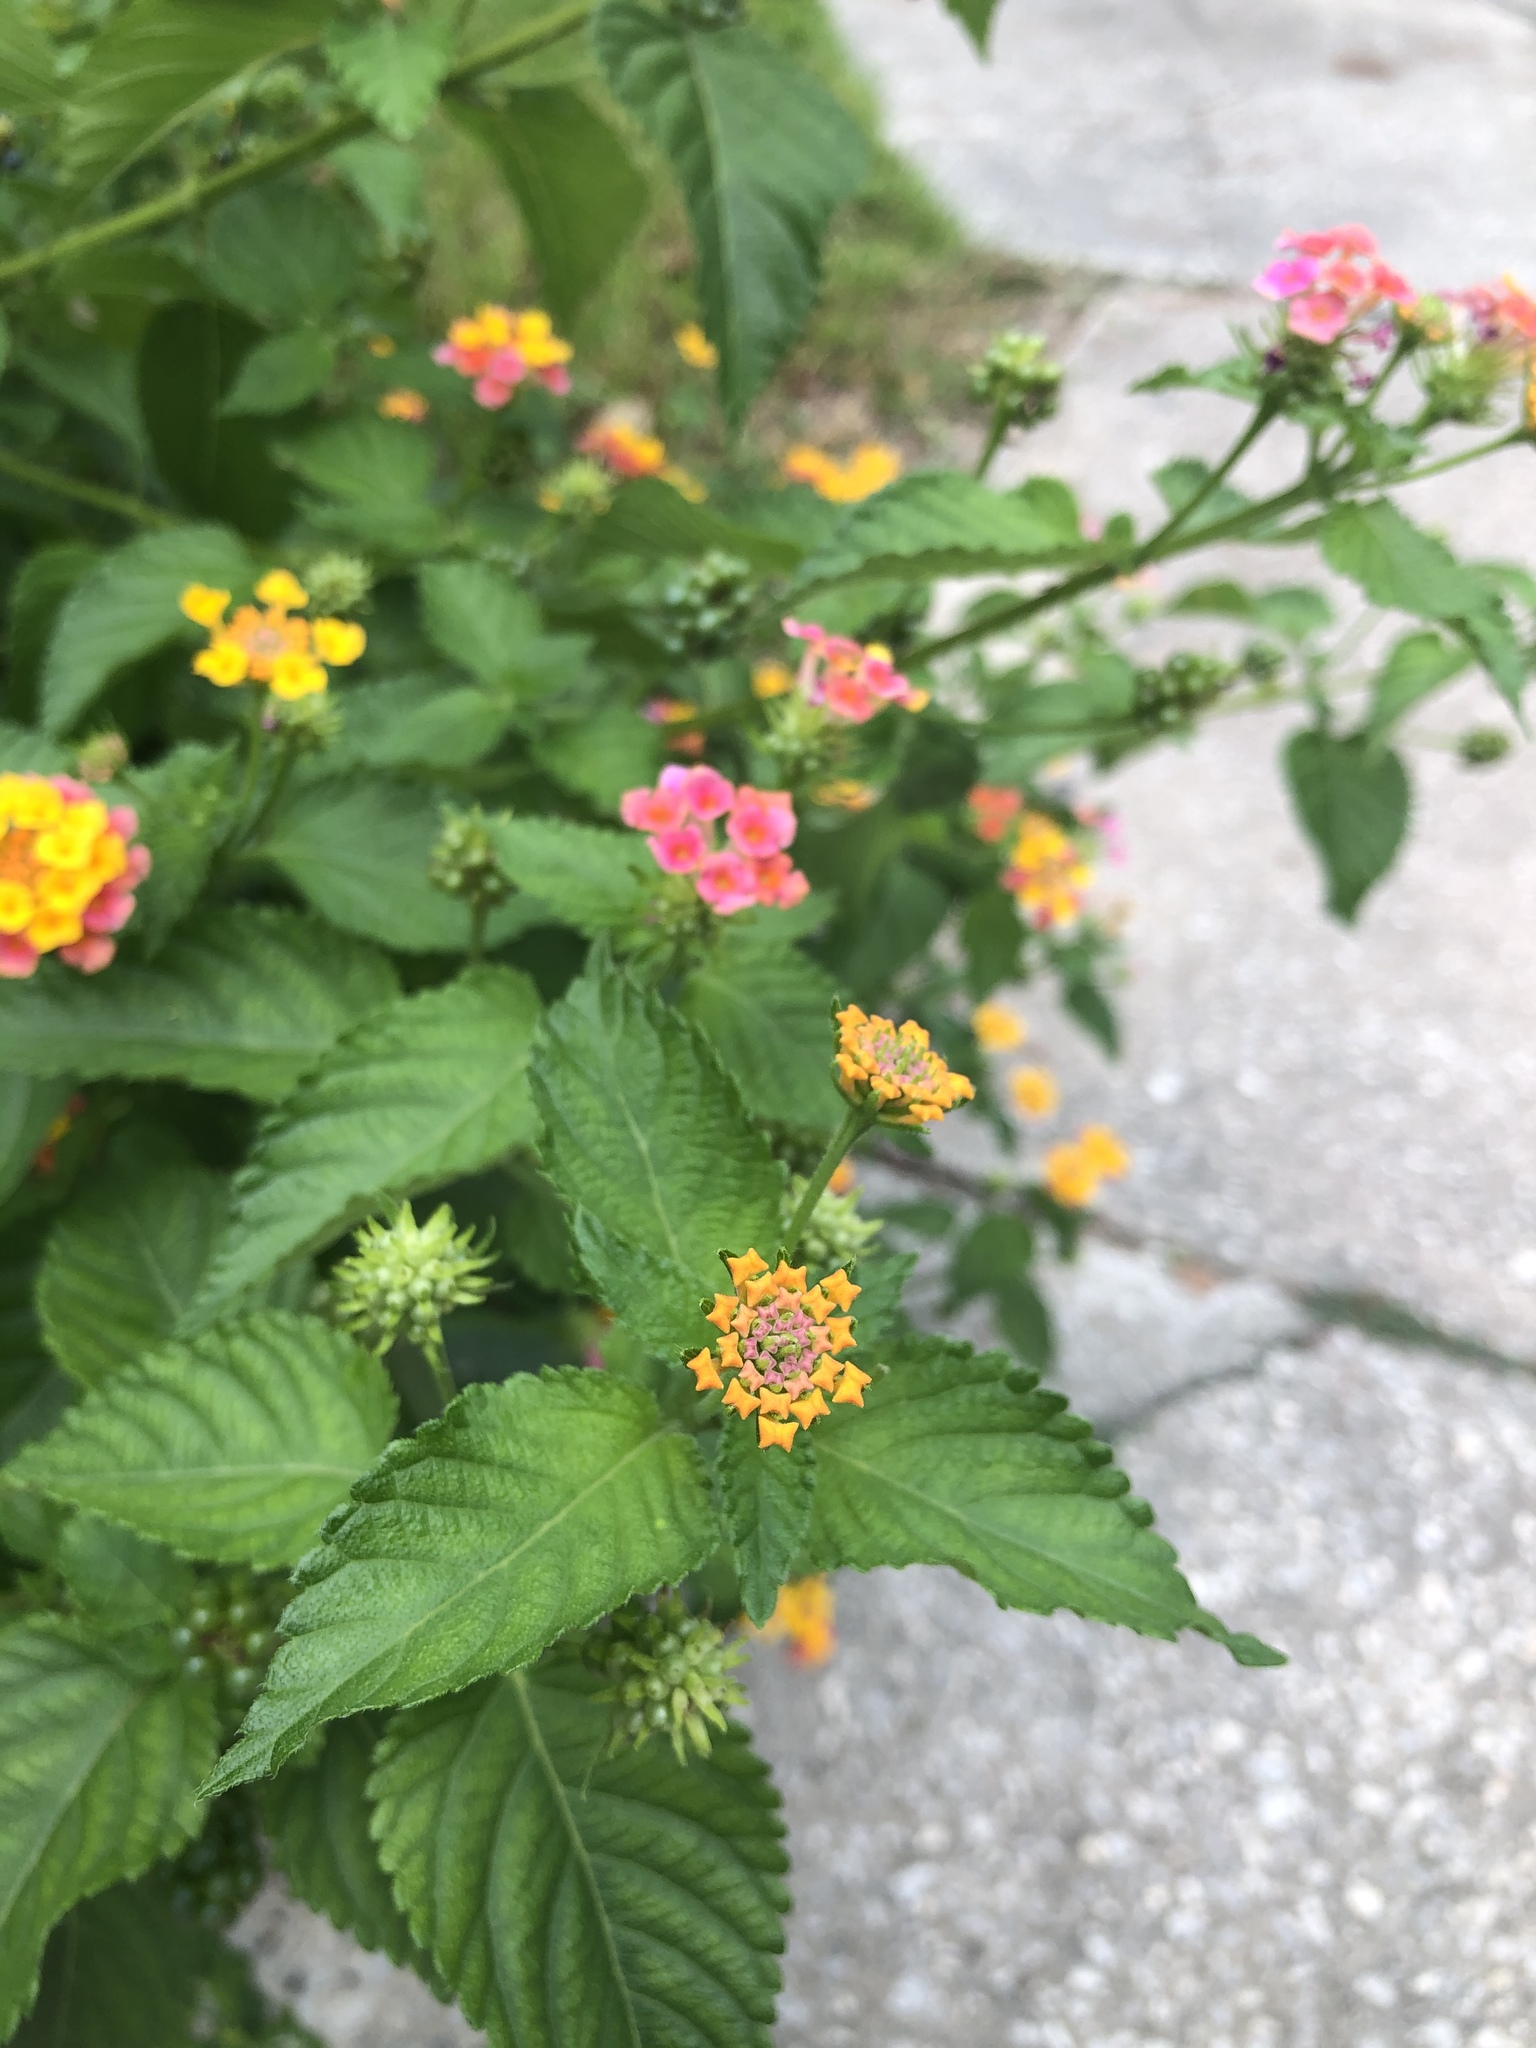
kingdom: Plantae
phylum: Tracheophyta
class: Magnoliopsida
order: Lamiales
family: Verbenaceae
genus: Lantana
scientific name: Lantana camara
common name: Lantana
